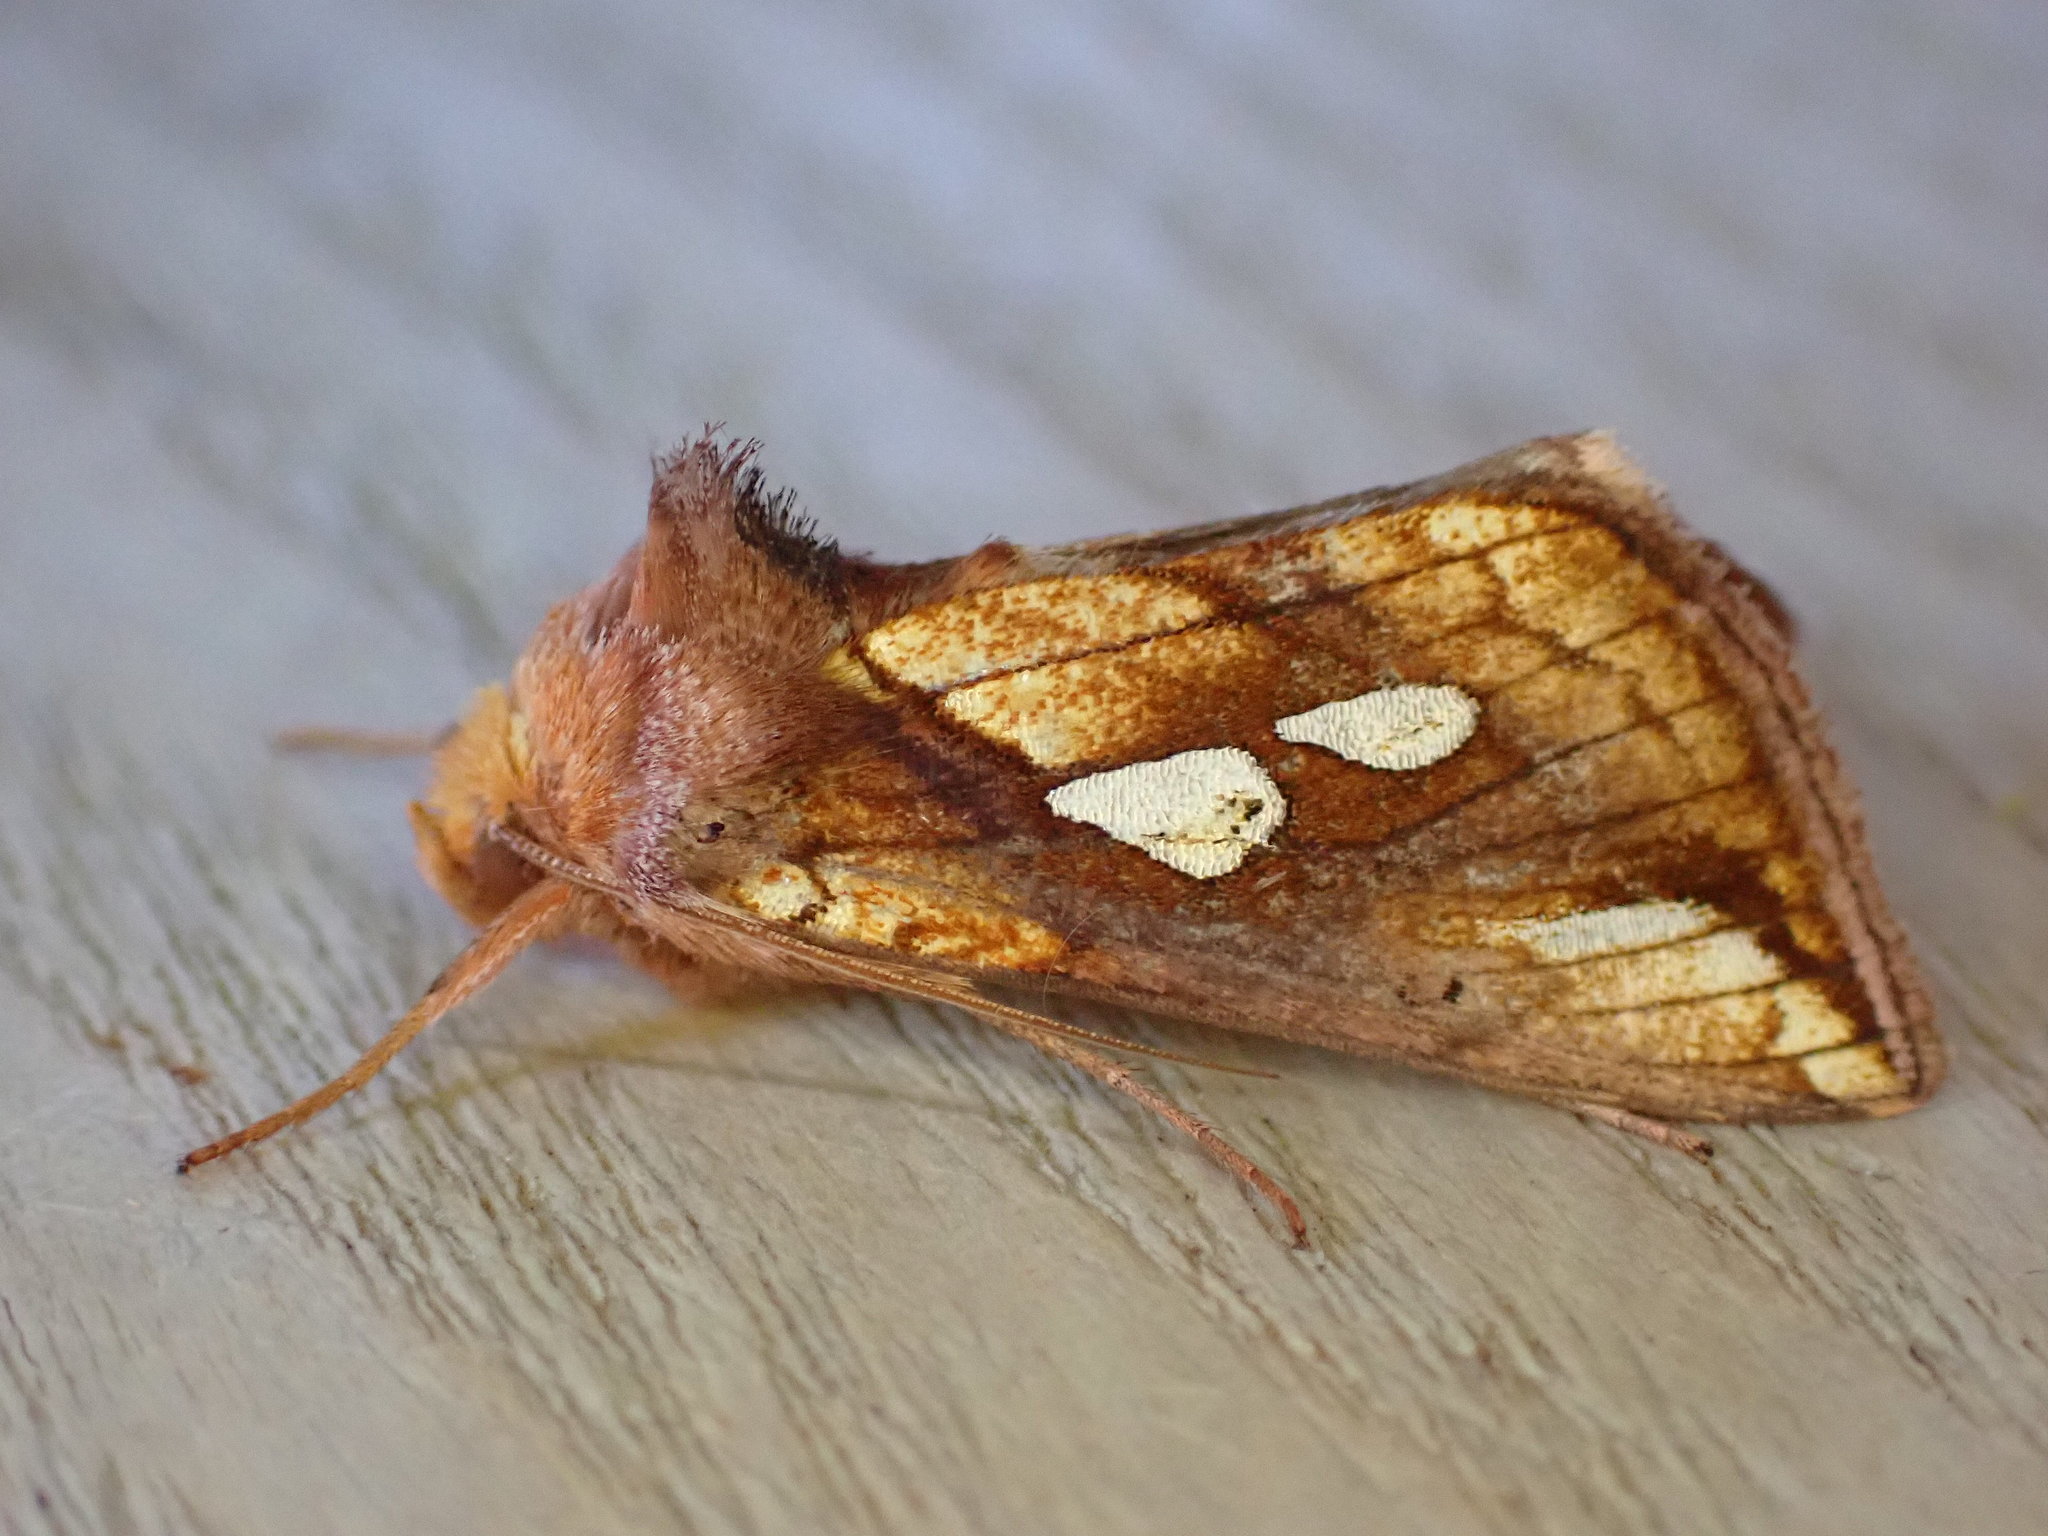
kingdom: Animalia
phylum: Arthropoda
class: Insecta
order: Lepidoptera
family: Noctuidae
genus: Plusia
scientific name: Plusia festucae
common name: Gold spot
